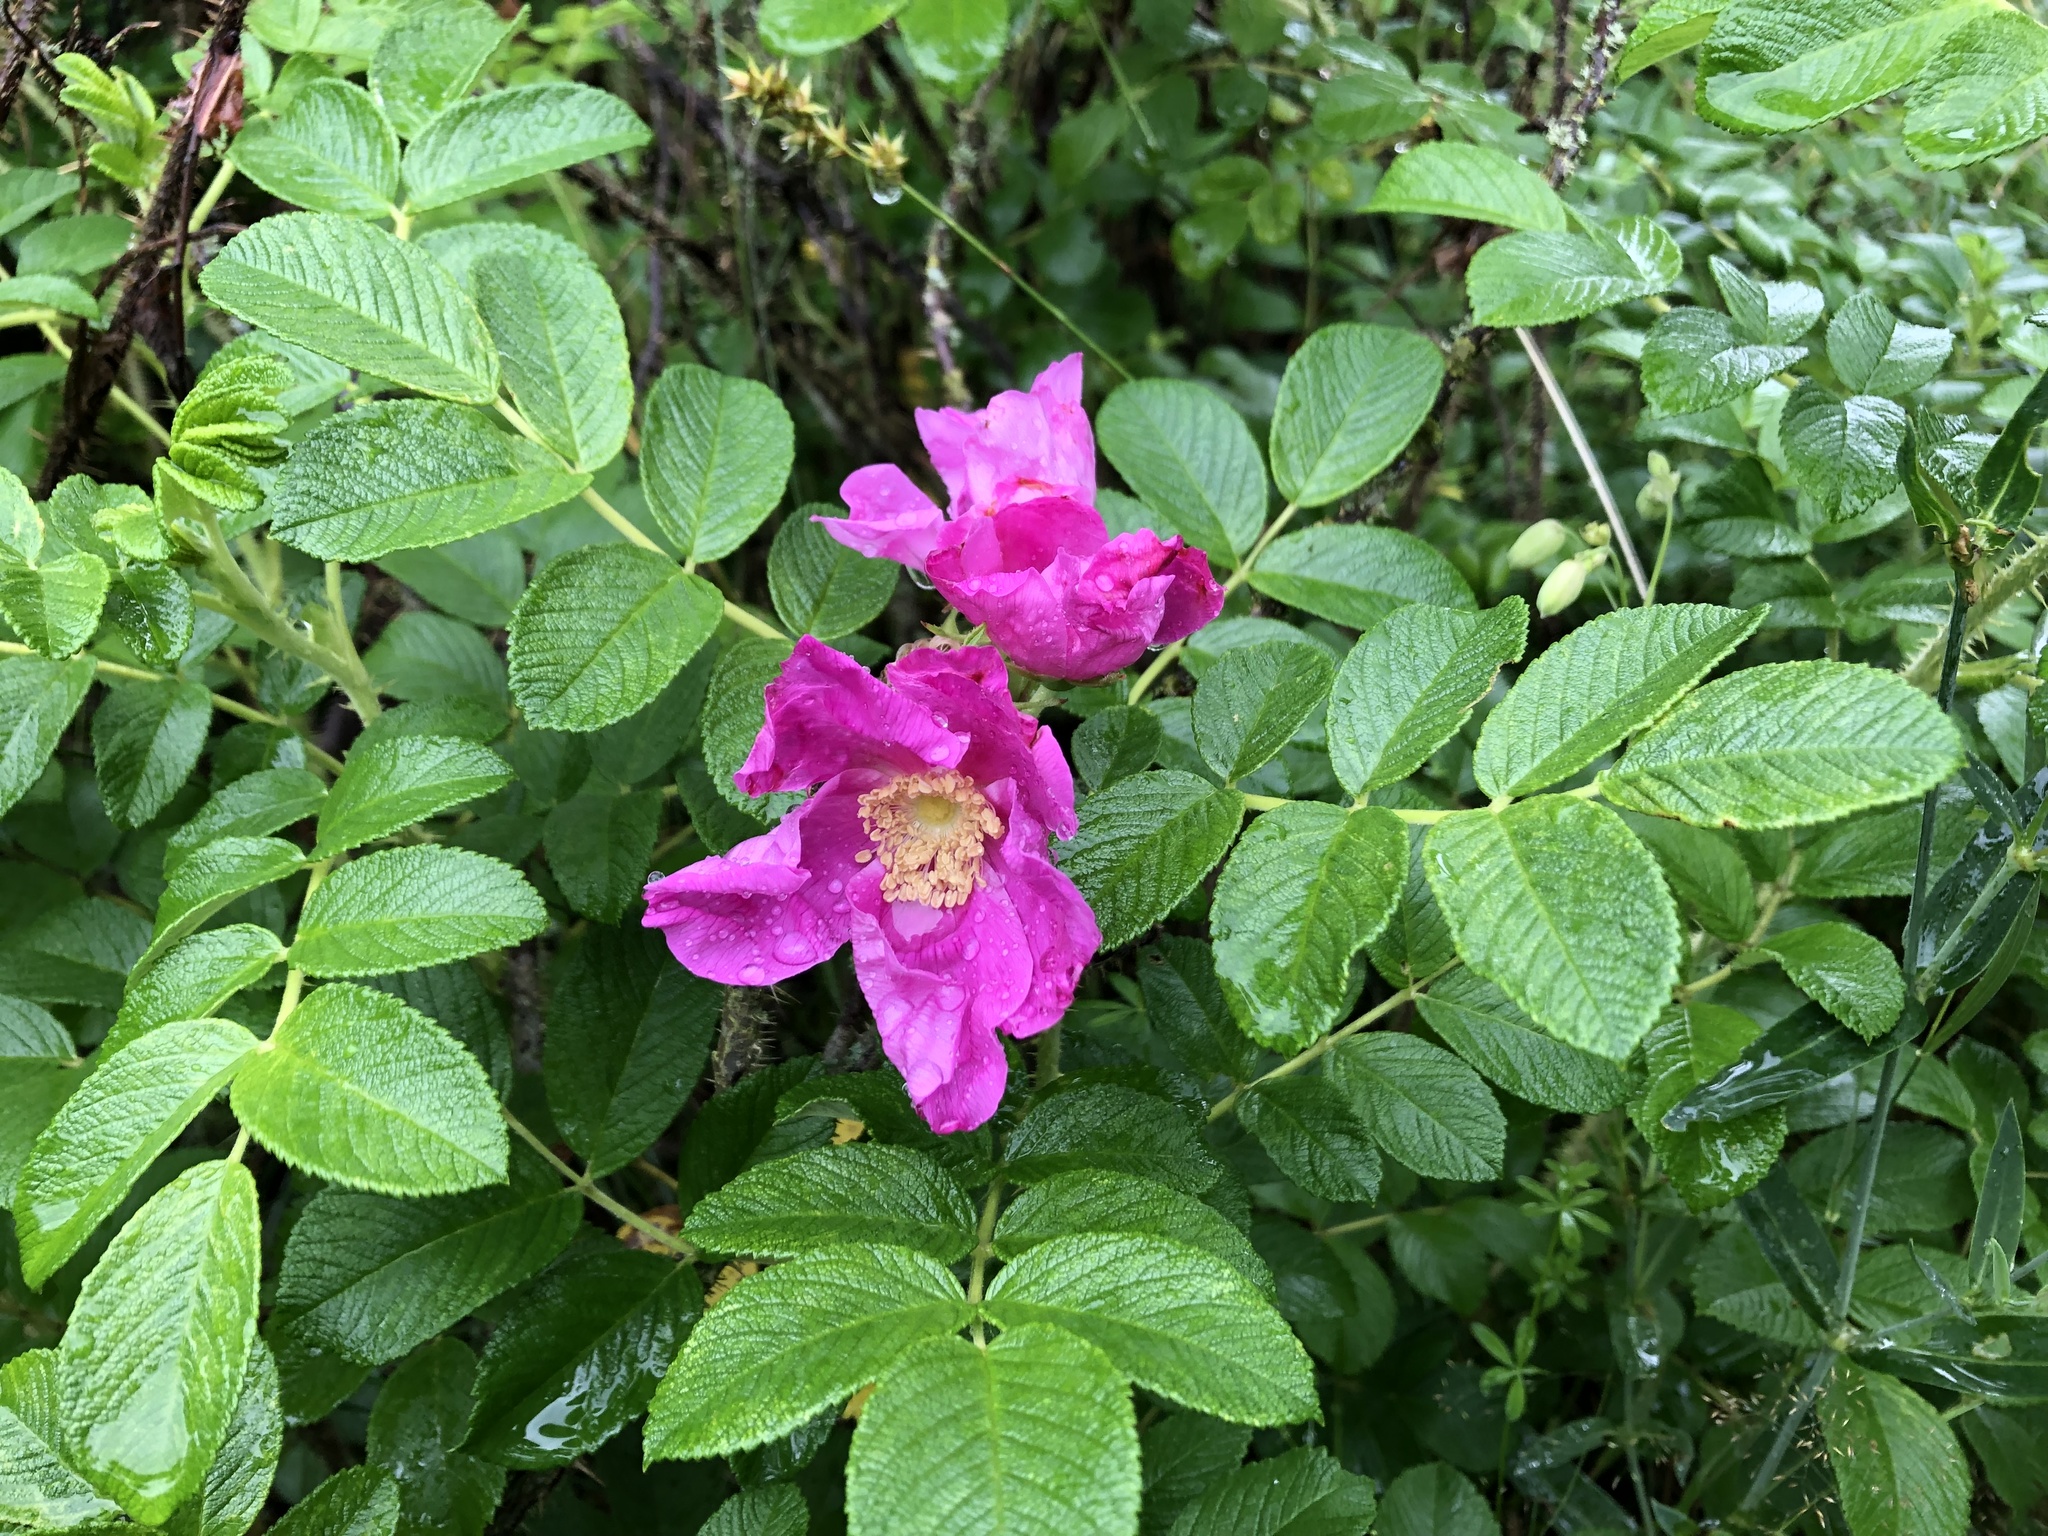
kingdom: Plantae
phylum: Tracheophyta
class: Magnoliopsida
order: Rosales
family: Rosaceae
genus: Rosa
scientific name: Rosa rugosa
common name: Japanese rose
